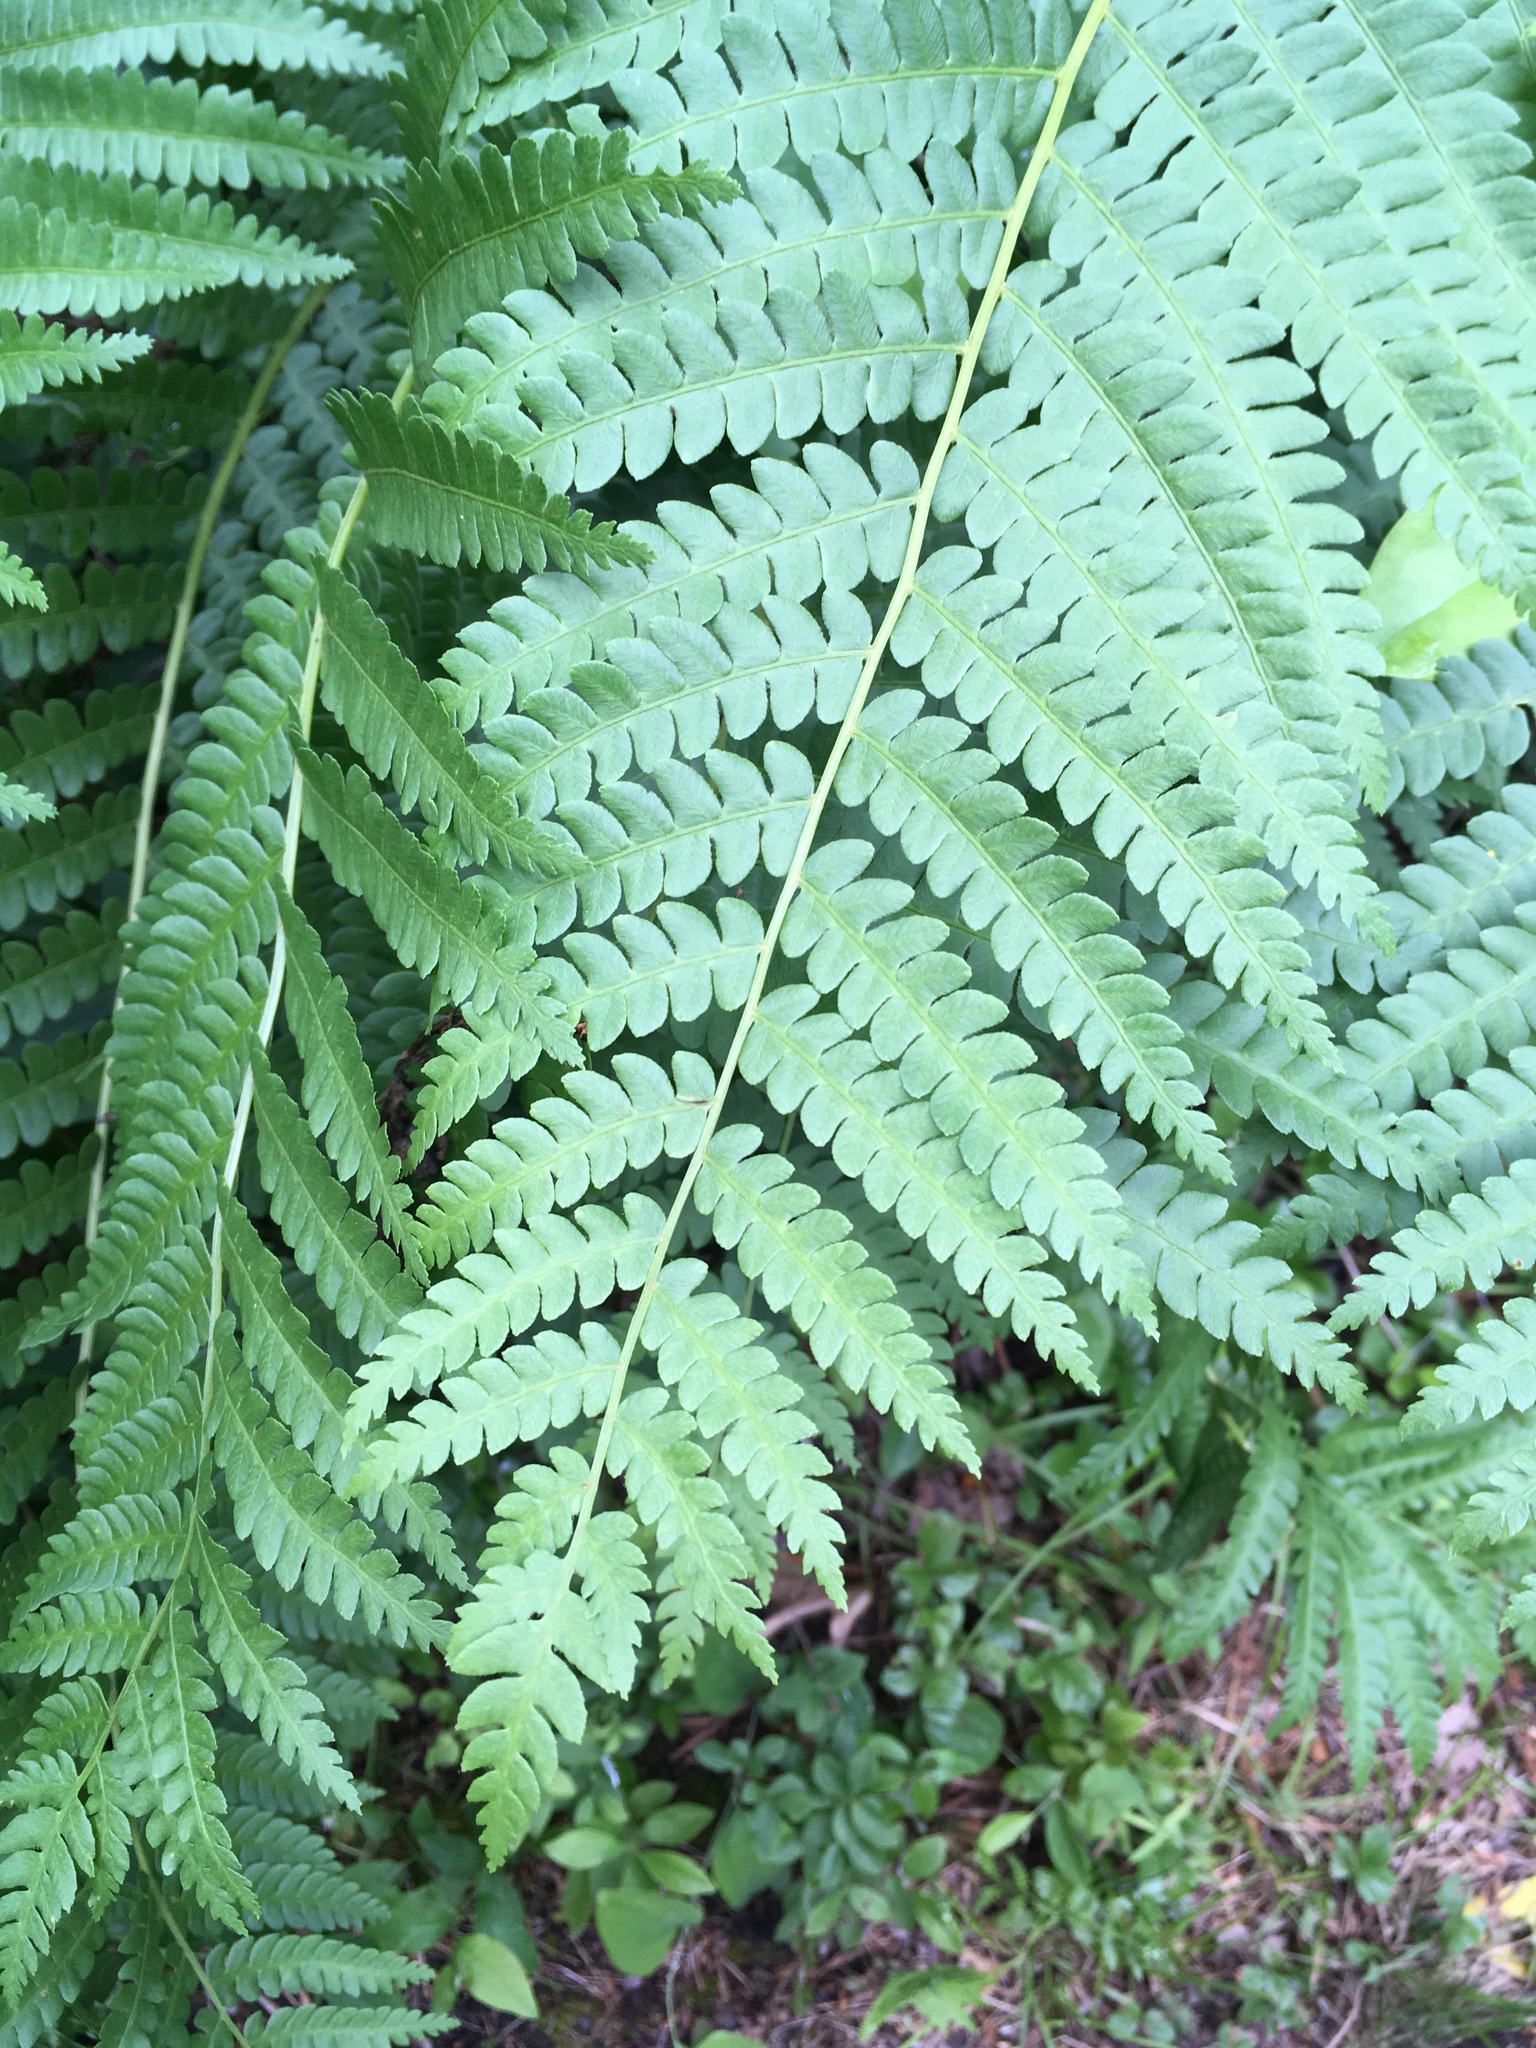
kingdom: Plantae
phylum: Tracheophyta
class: Polypodiopsida
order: Osmundales
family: Osmundaceae
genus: Osmundastrum
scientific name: Osmundastrum cinnamomeum
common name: Cinnamon fern
